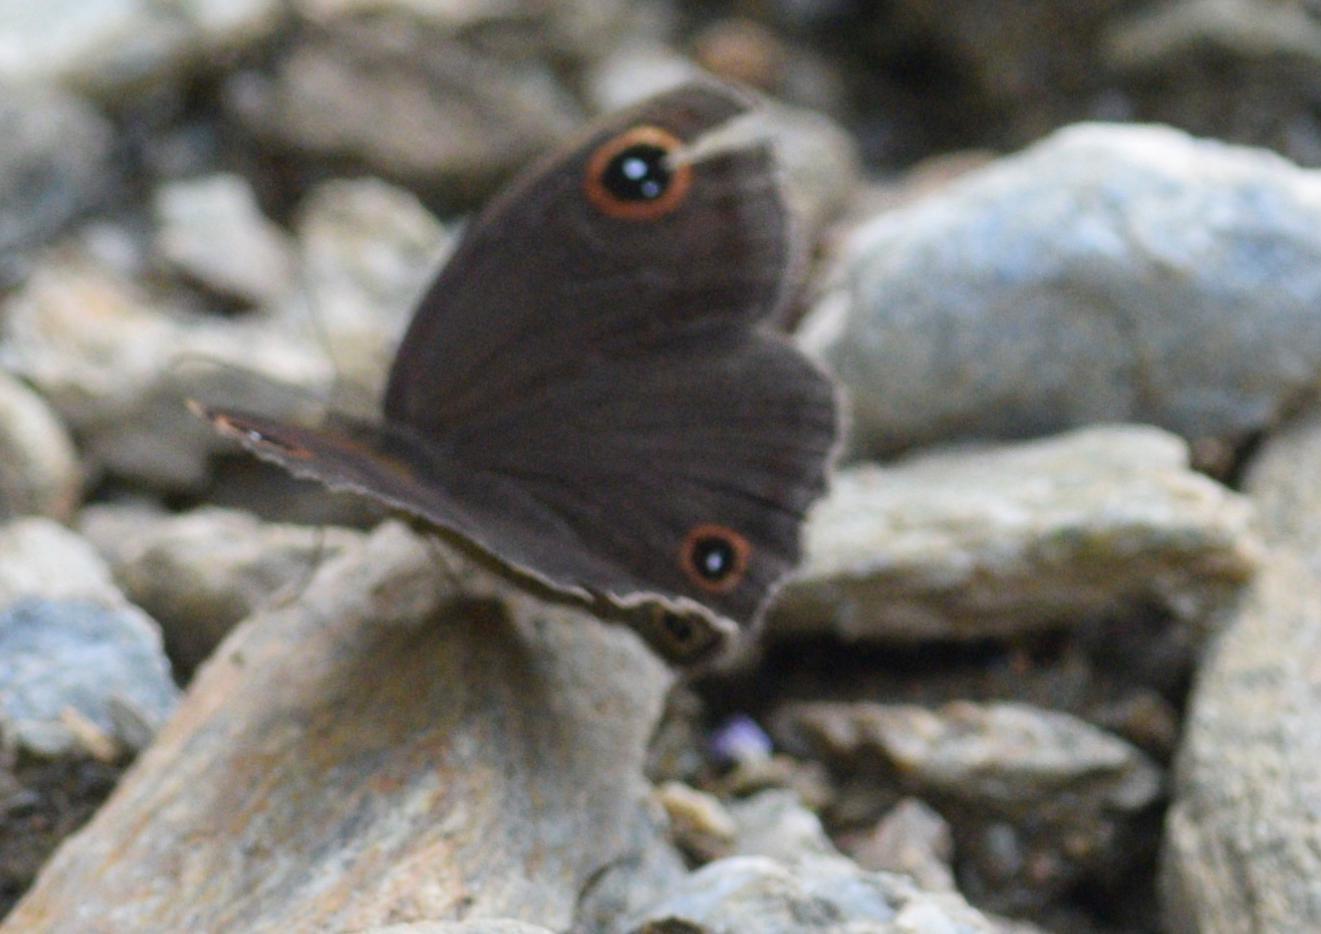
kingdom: Animalia
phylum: Arthropoda
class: Insecta
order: Lepidoptera
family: Nymphalidae
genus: Callerebia
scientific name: Callerebia hybrida
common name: Hybrid argus
